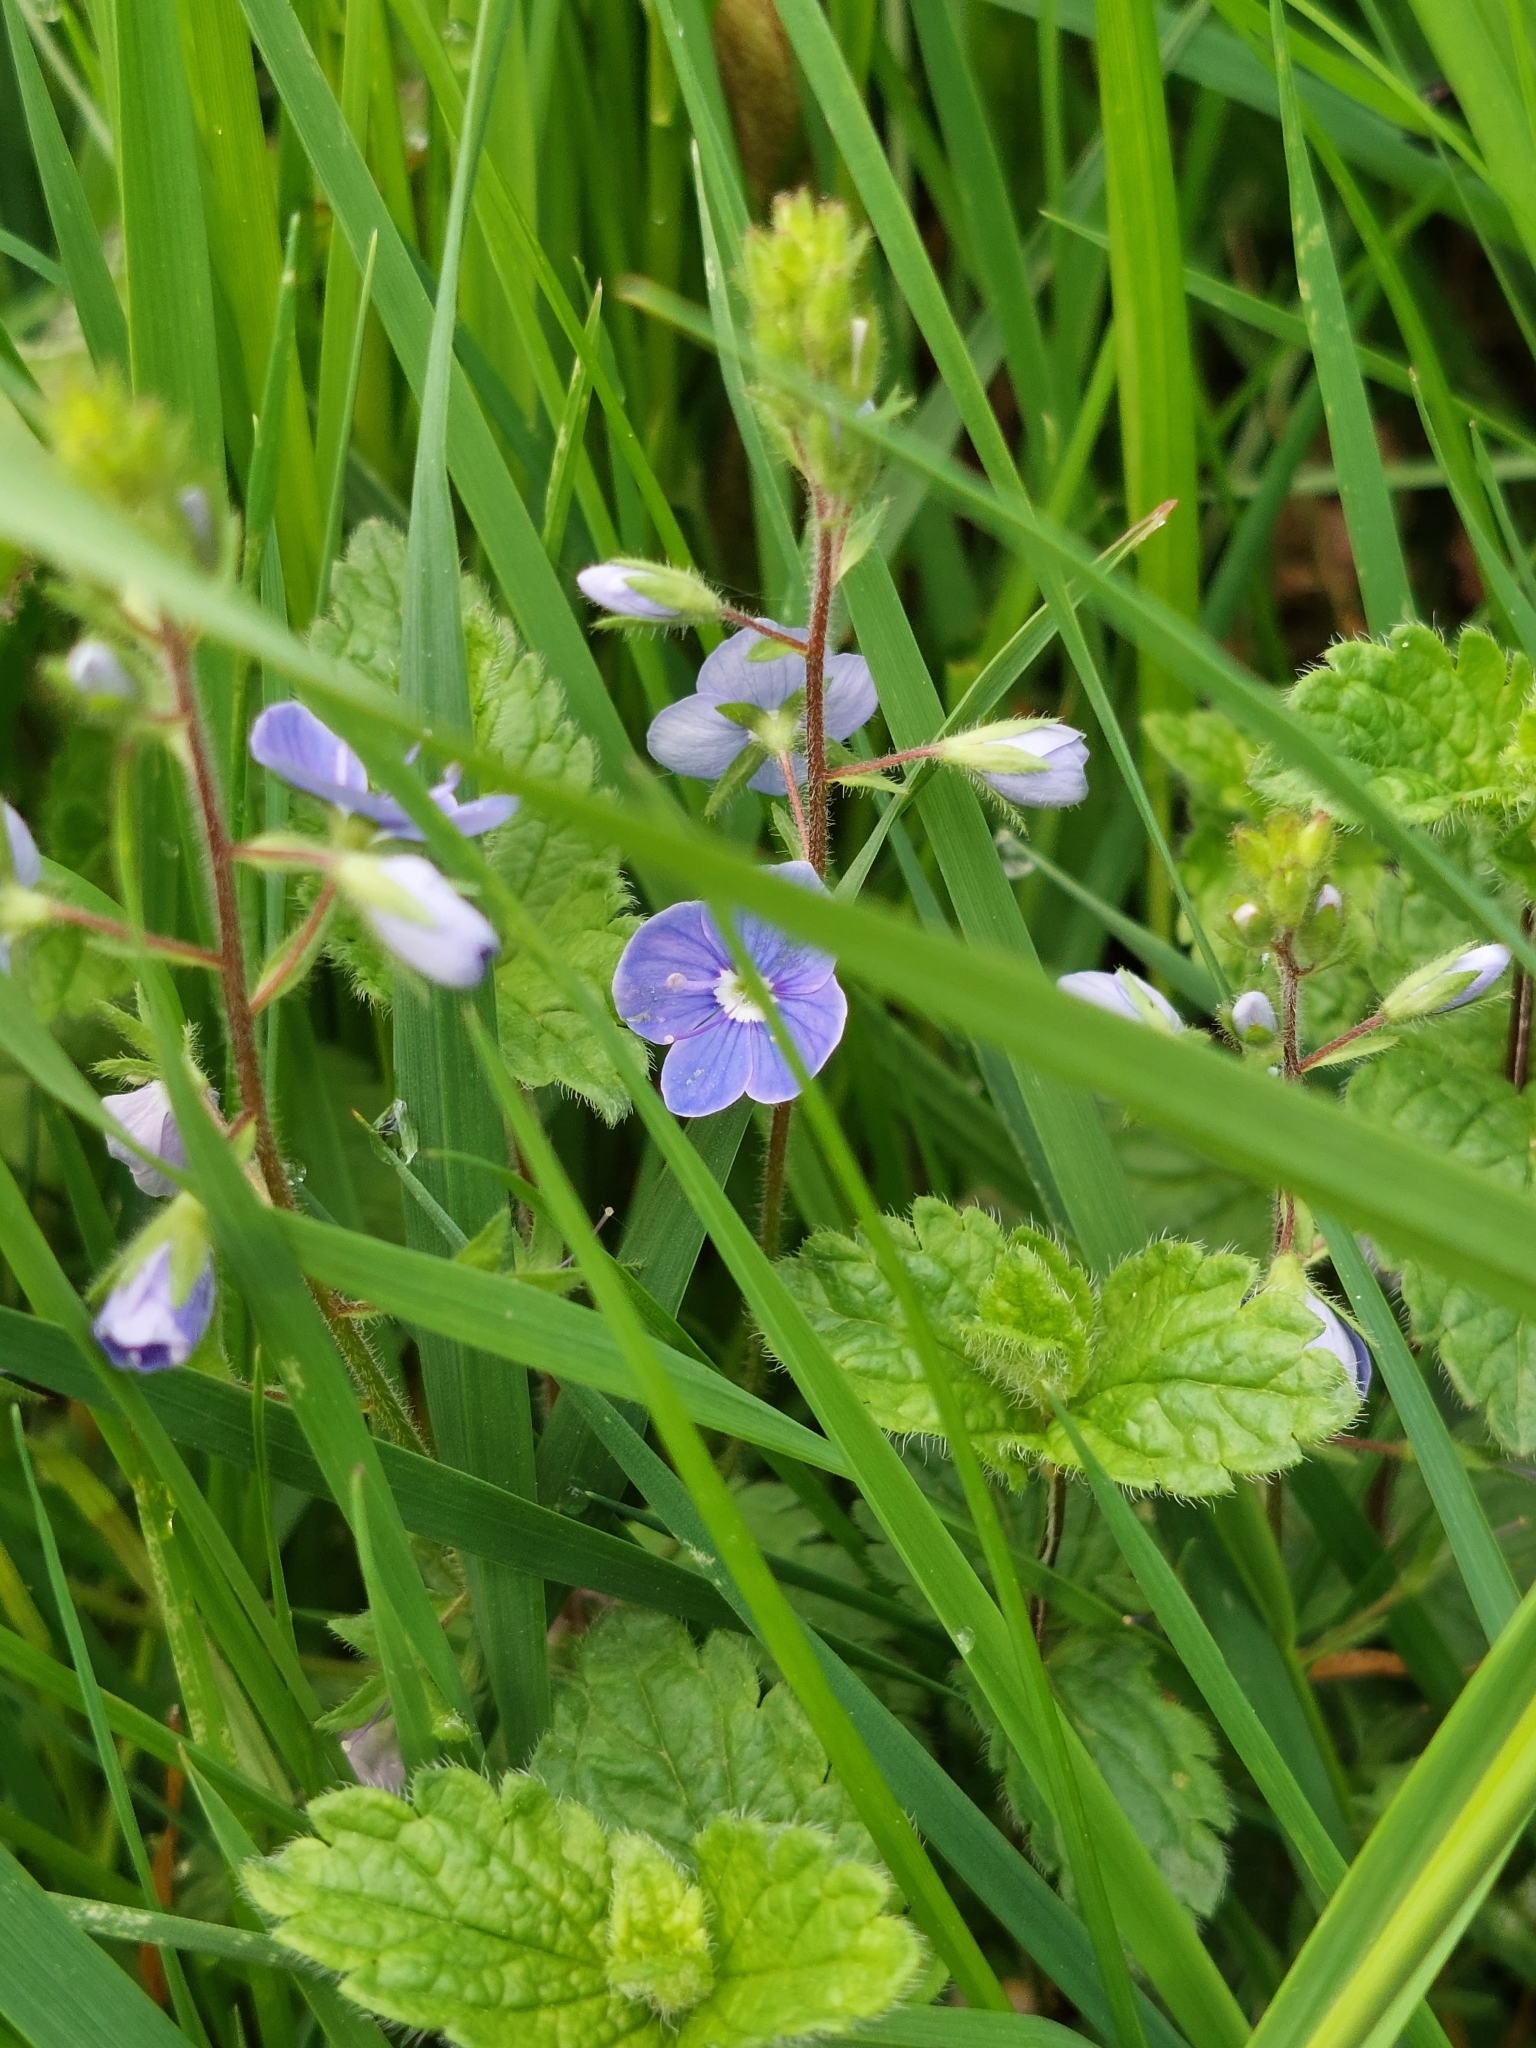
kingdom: Plantae
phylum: Tracheophyta
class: Magnoliopsida
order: Lamiales
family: Plantaginaceae
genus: Veronica
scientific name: Veronica chamaedrys
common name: Germander speedwell
